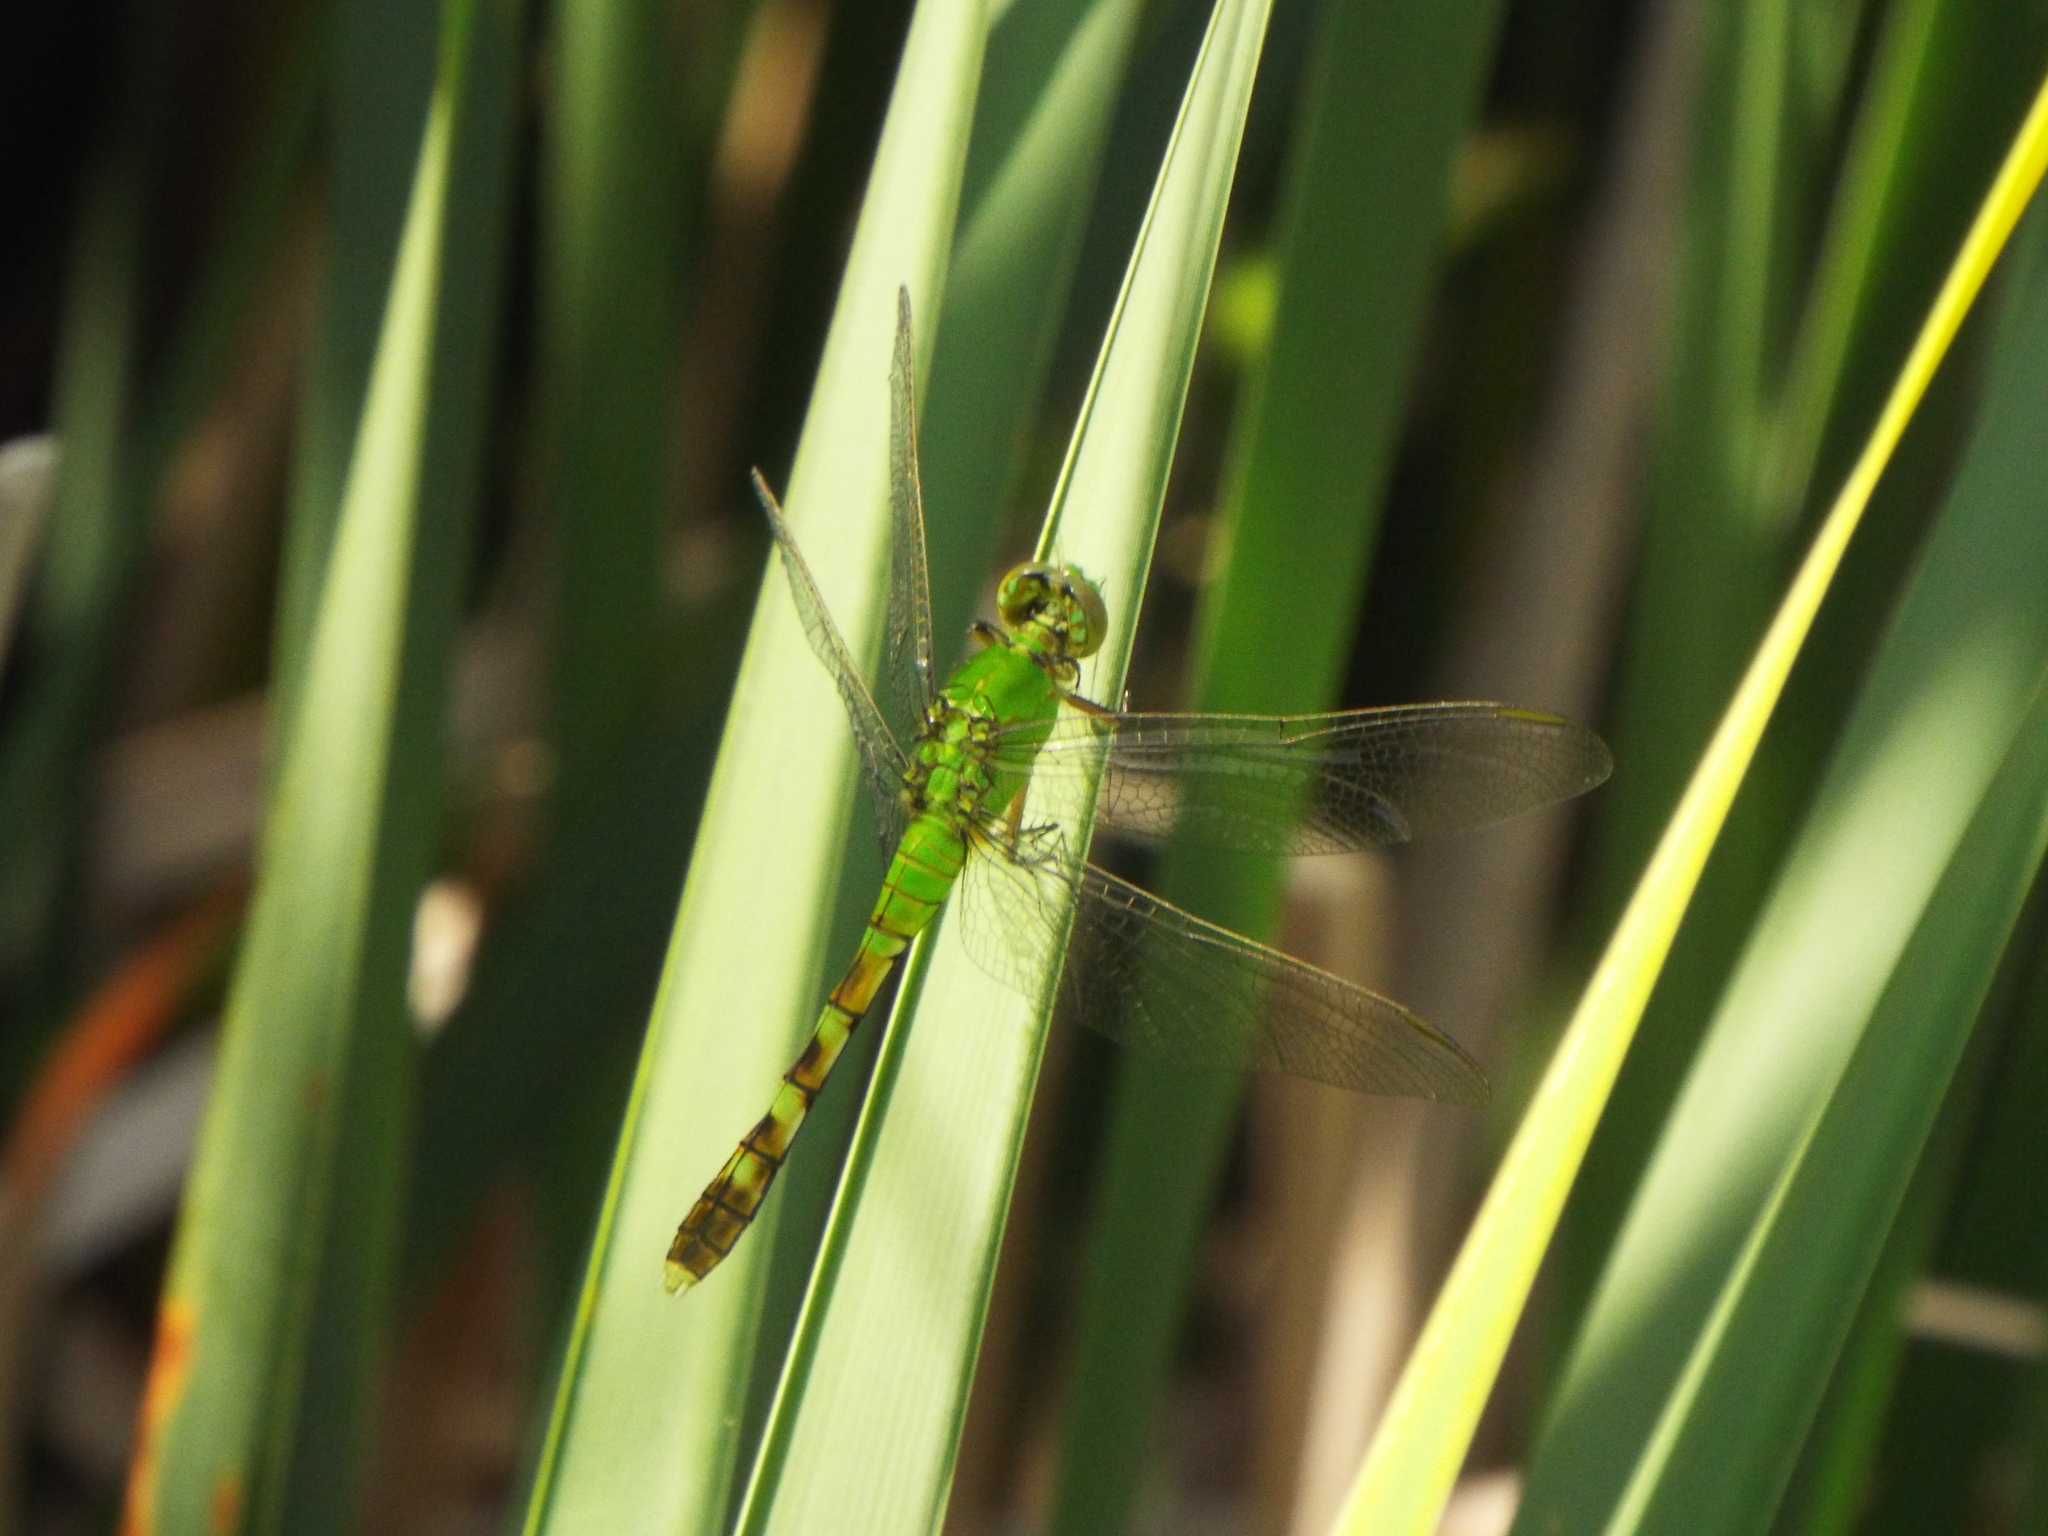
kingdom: Animalia
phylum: Arthropoda
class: Insecta
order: Odonata
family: Libellulidae
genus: Erythemis
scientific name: Erythemis simplicicollis
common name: Eastern pondhawk
